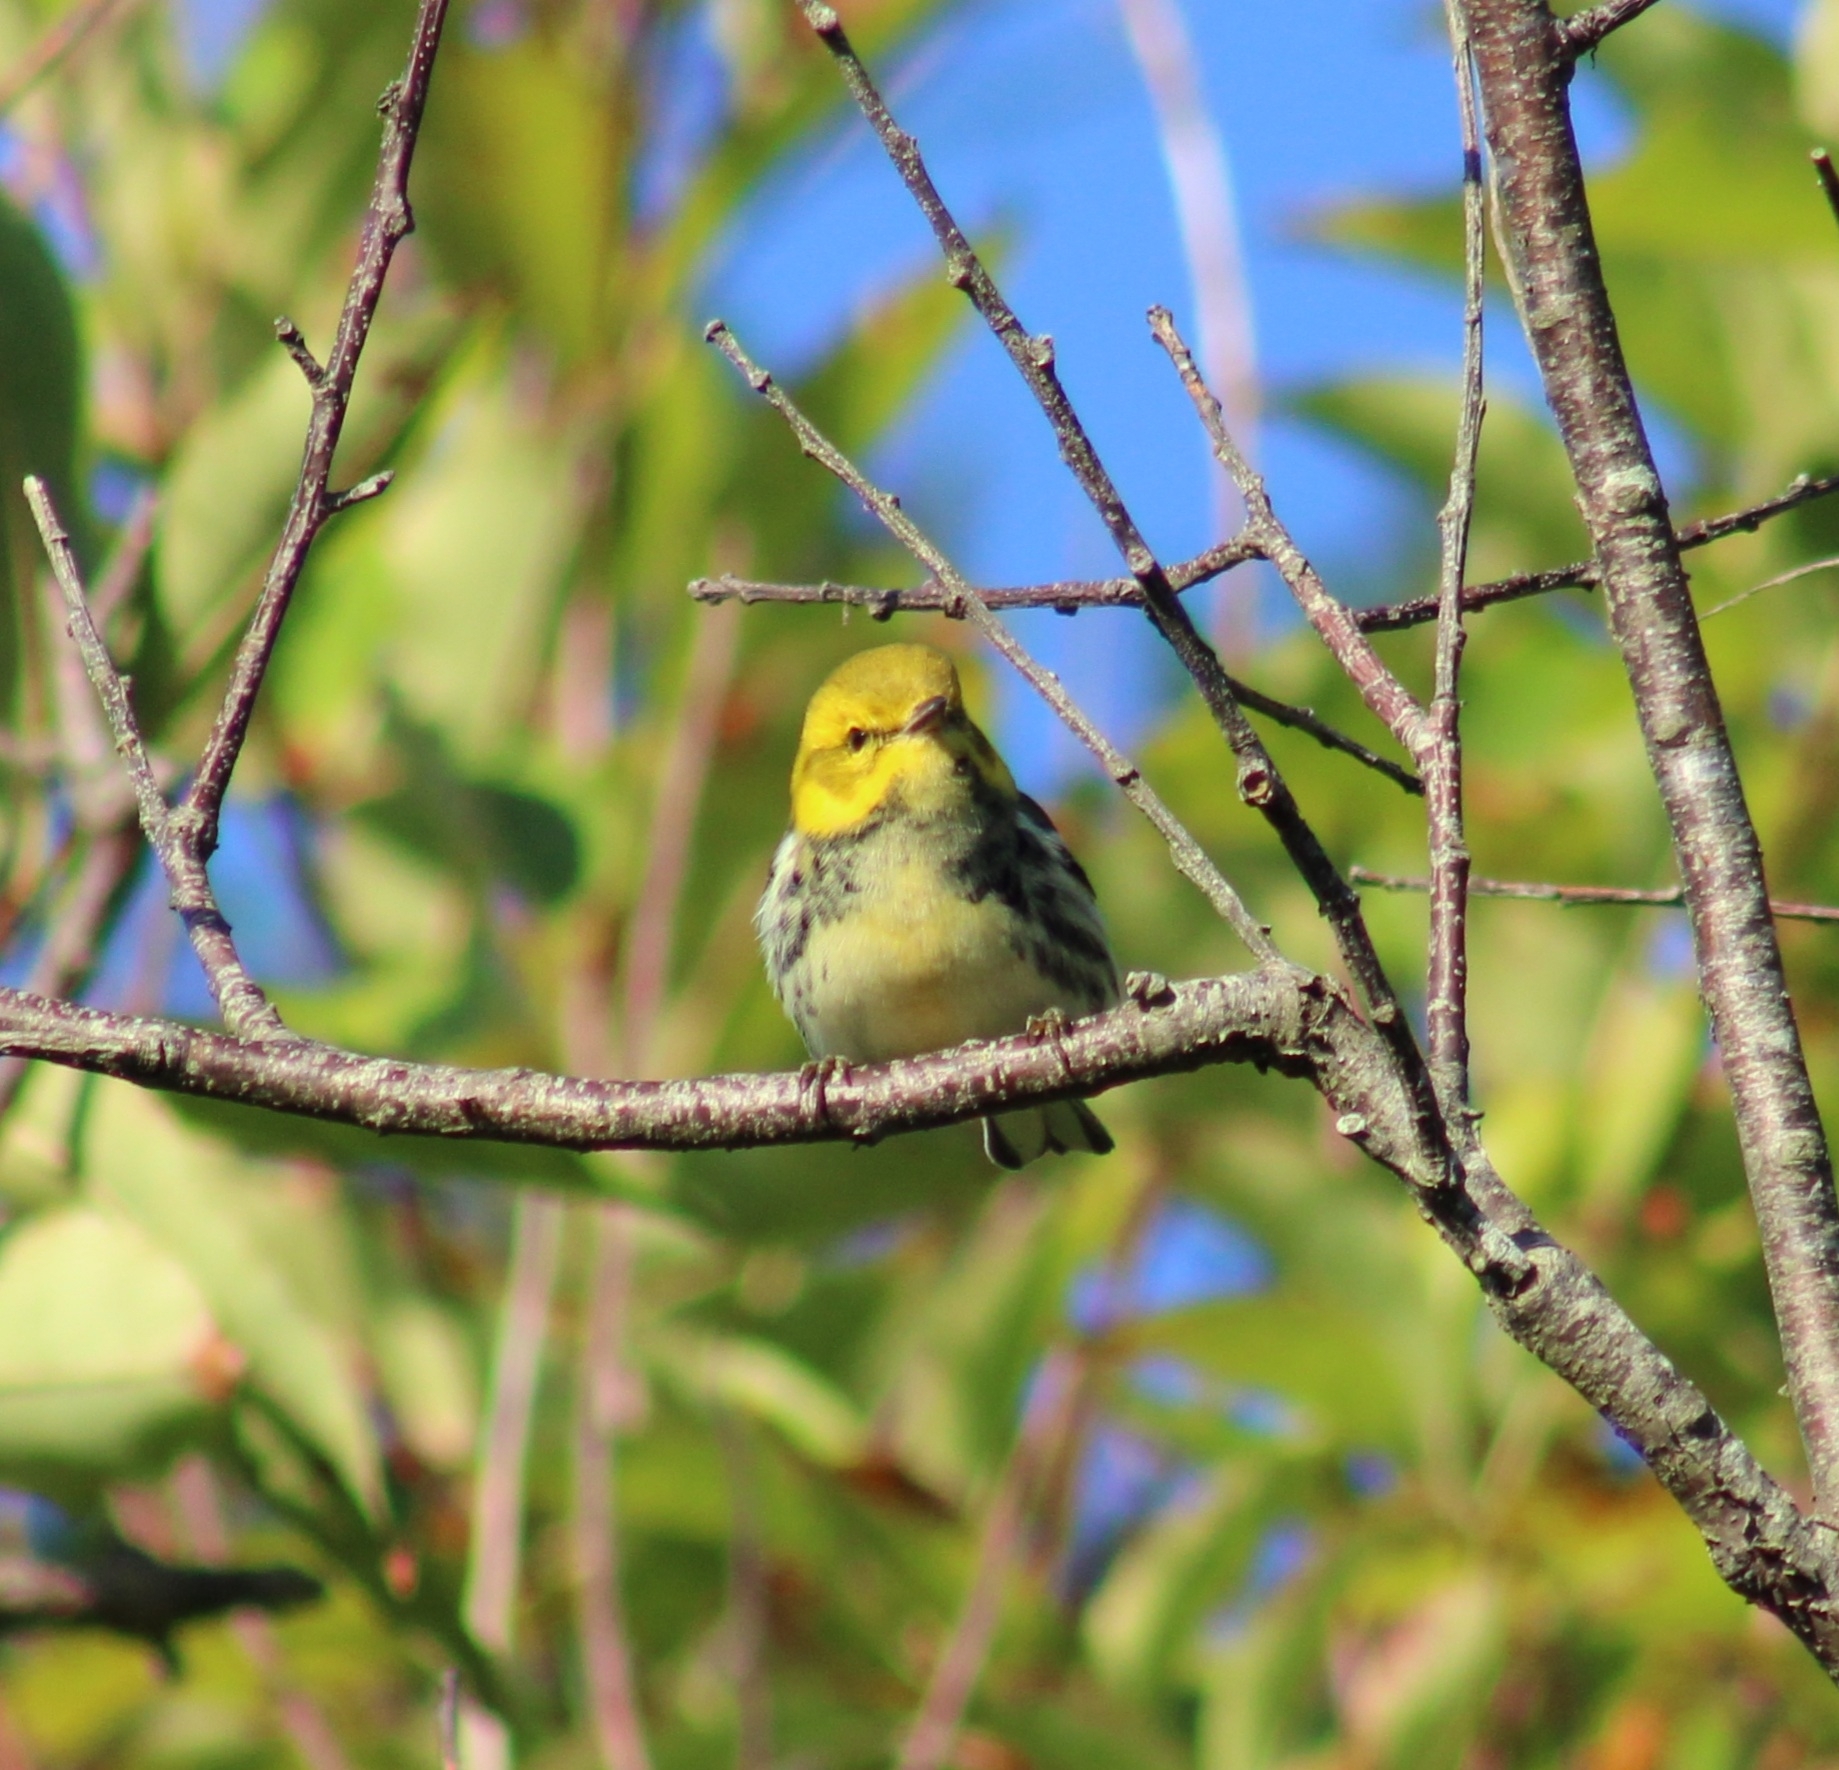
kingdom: Animalia
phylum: Chordata
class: Aves
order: Passeriformes
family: Parulidae
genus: Setophaga
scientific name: Setophaga virens
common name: Black-throated green warbler
